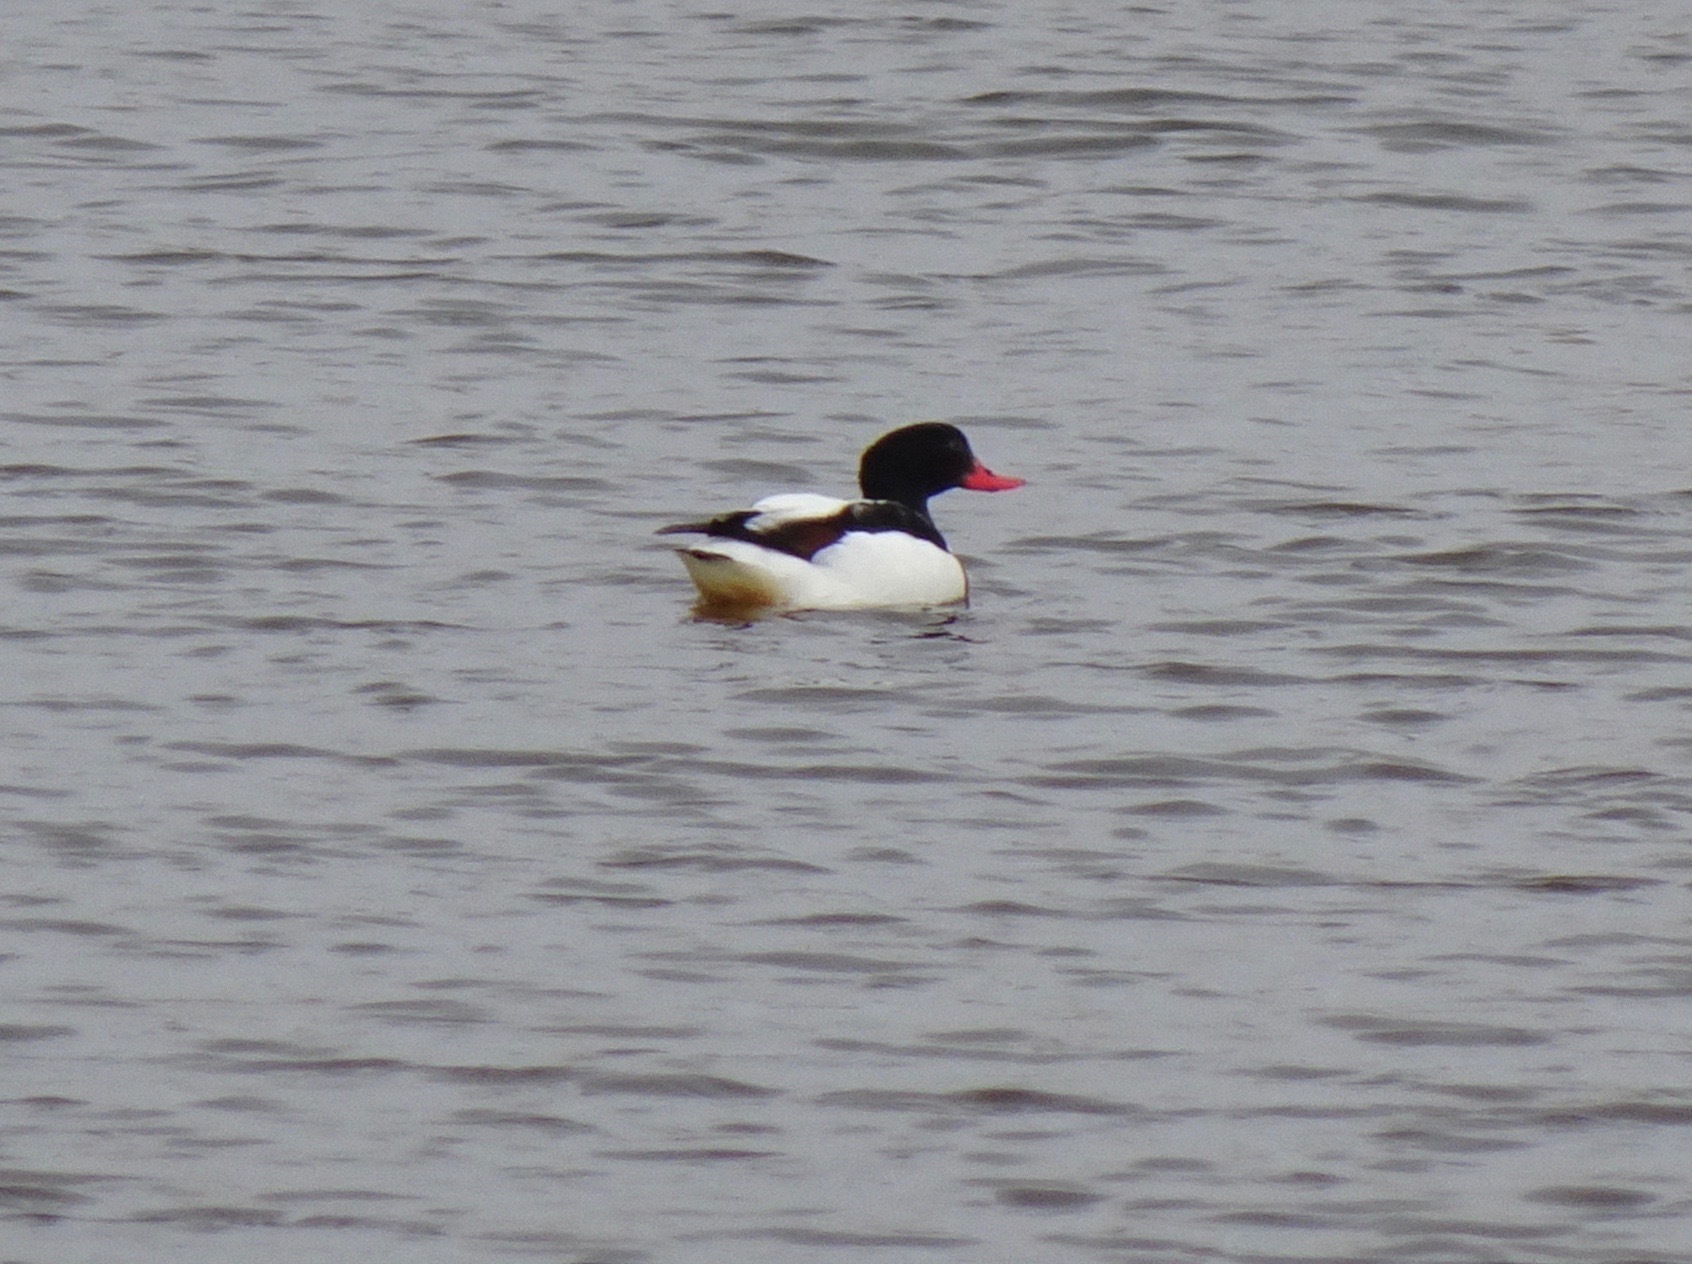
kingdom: Animalia
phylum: Chordata
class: Aves
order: Anseriformes
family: Anatidae
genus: Tadorna
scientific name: Tadorna tadorna
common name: Common shelduck
